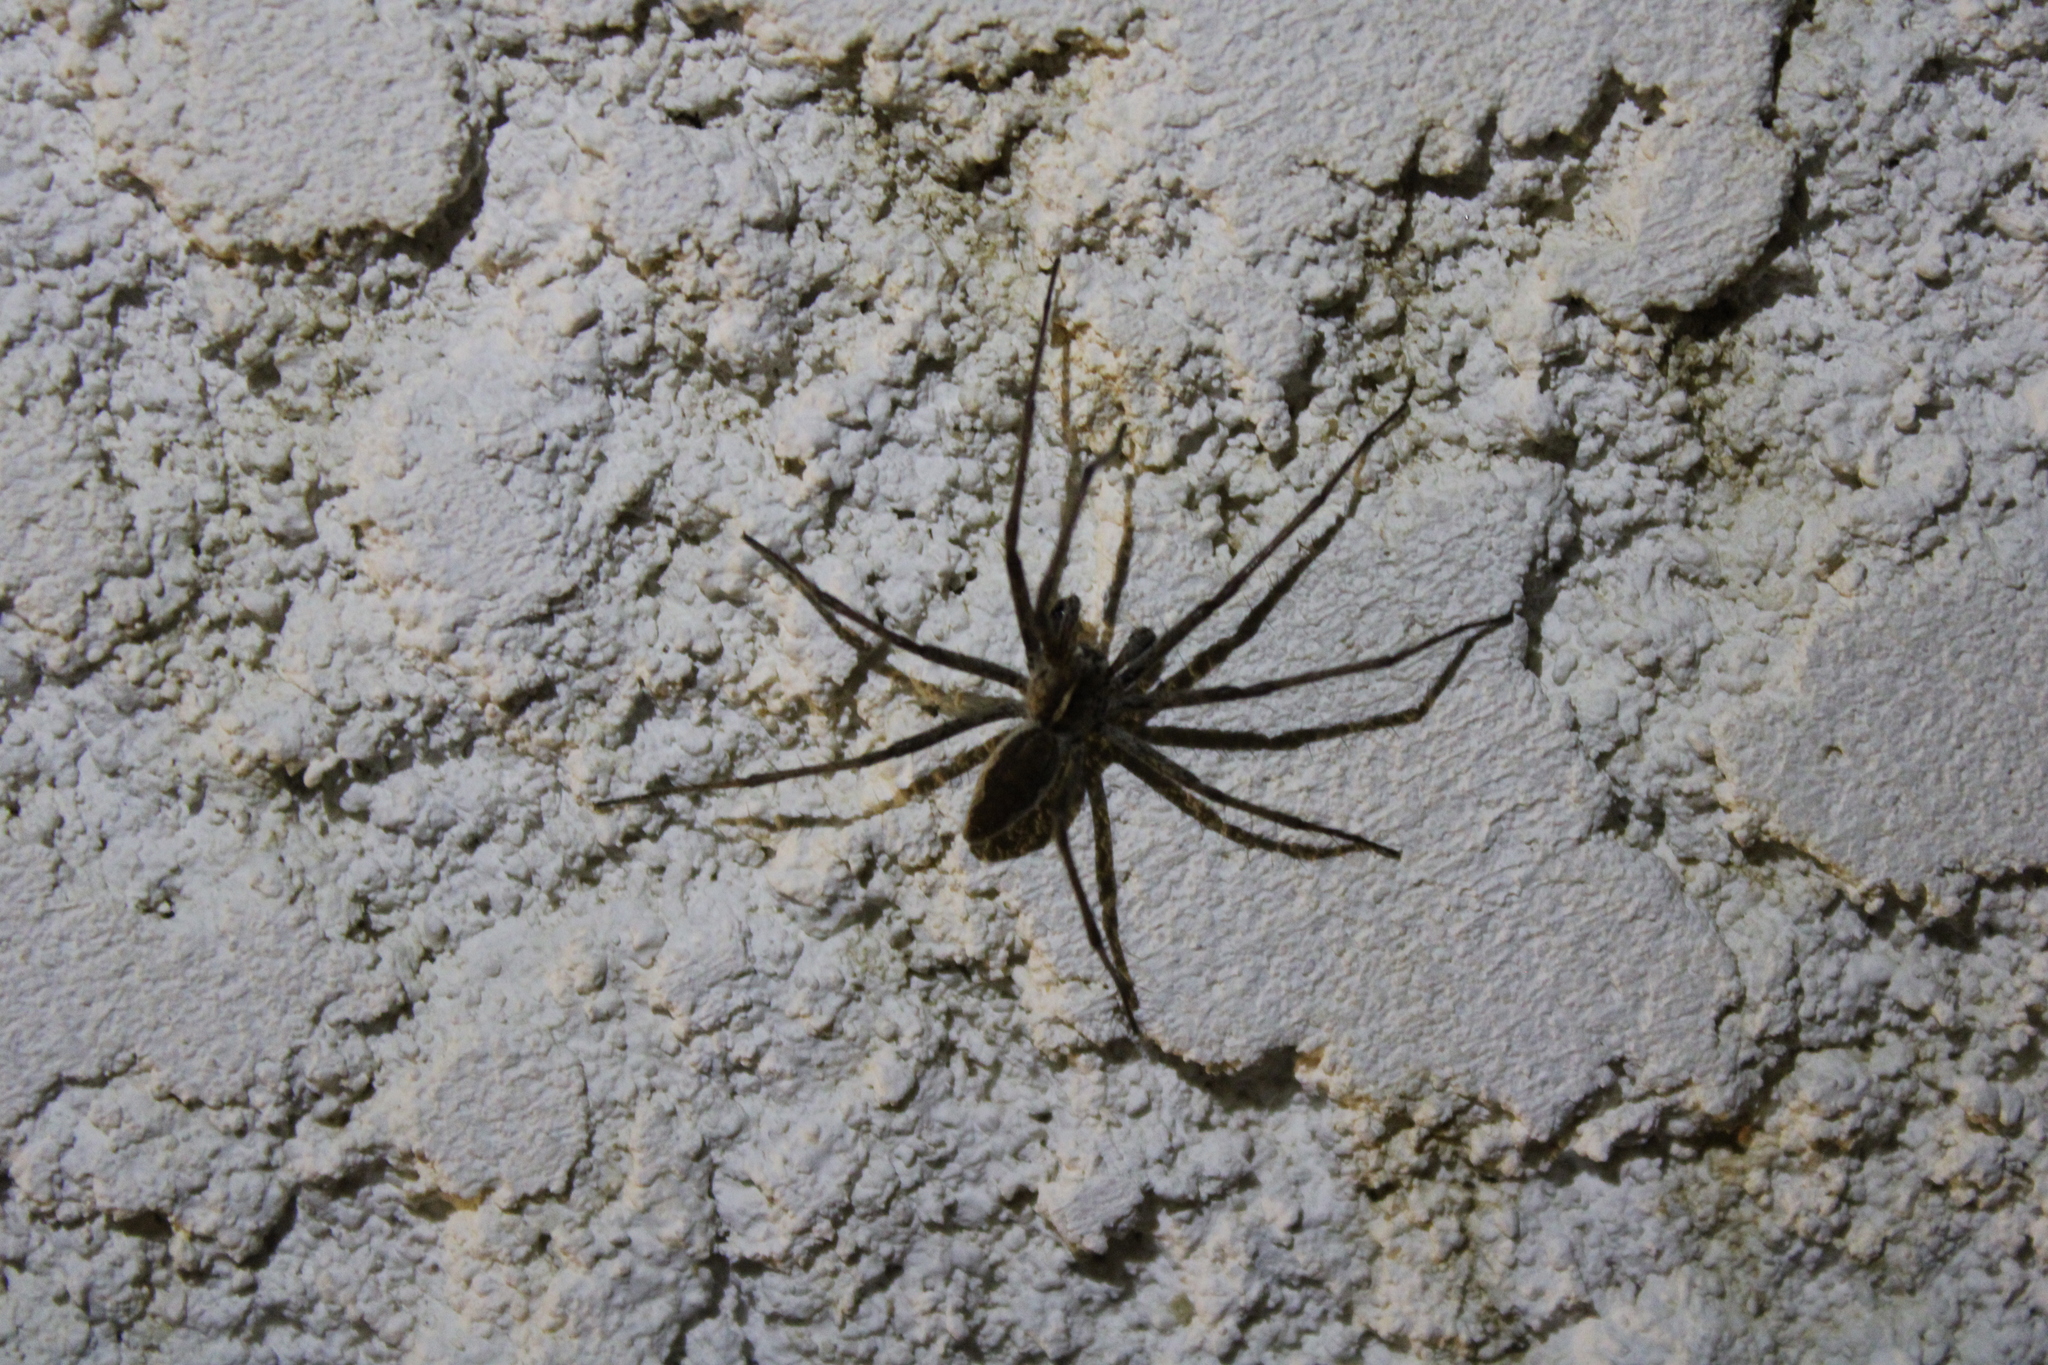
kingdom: Animalia
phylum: Arthropoda
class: Arachnida
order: Araneae
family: Pisauridae
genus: Pisaura
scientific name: Pisaura mirabilis
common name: Tent spider
